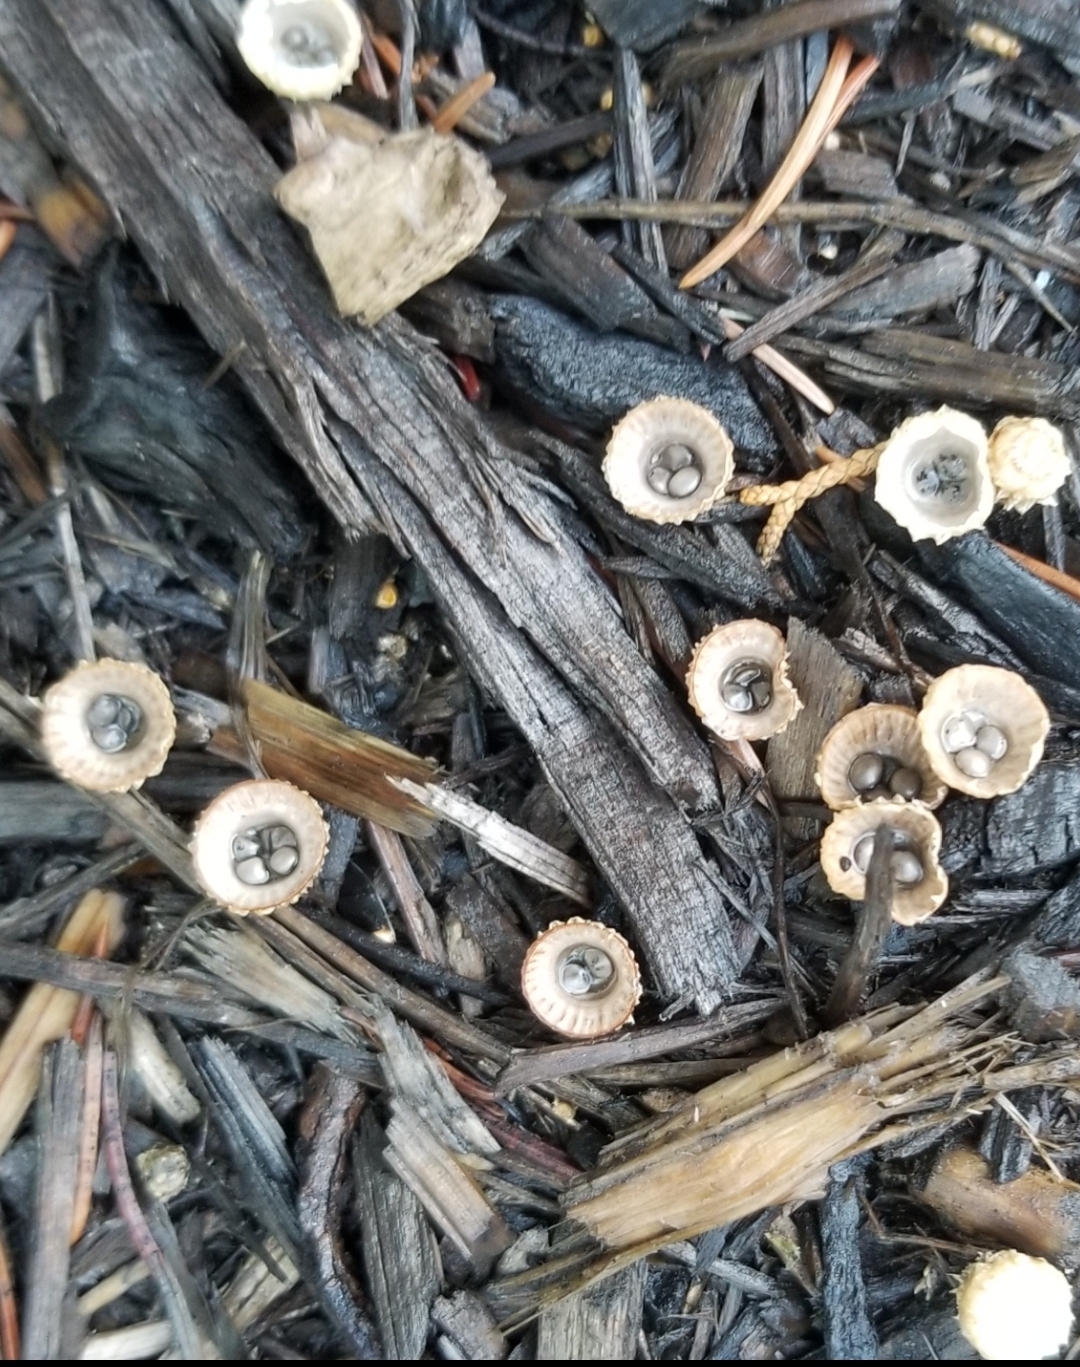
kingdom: Fungi
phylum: Basidiomycota
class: Agaricomycetes
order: Agaricales
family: Agaricaceae
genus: Cyathus
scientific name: Cyathus striatus
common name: Fluted bird's nest
